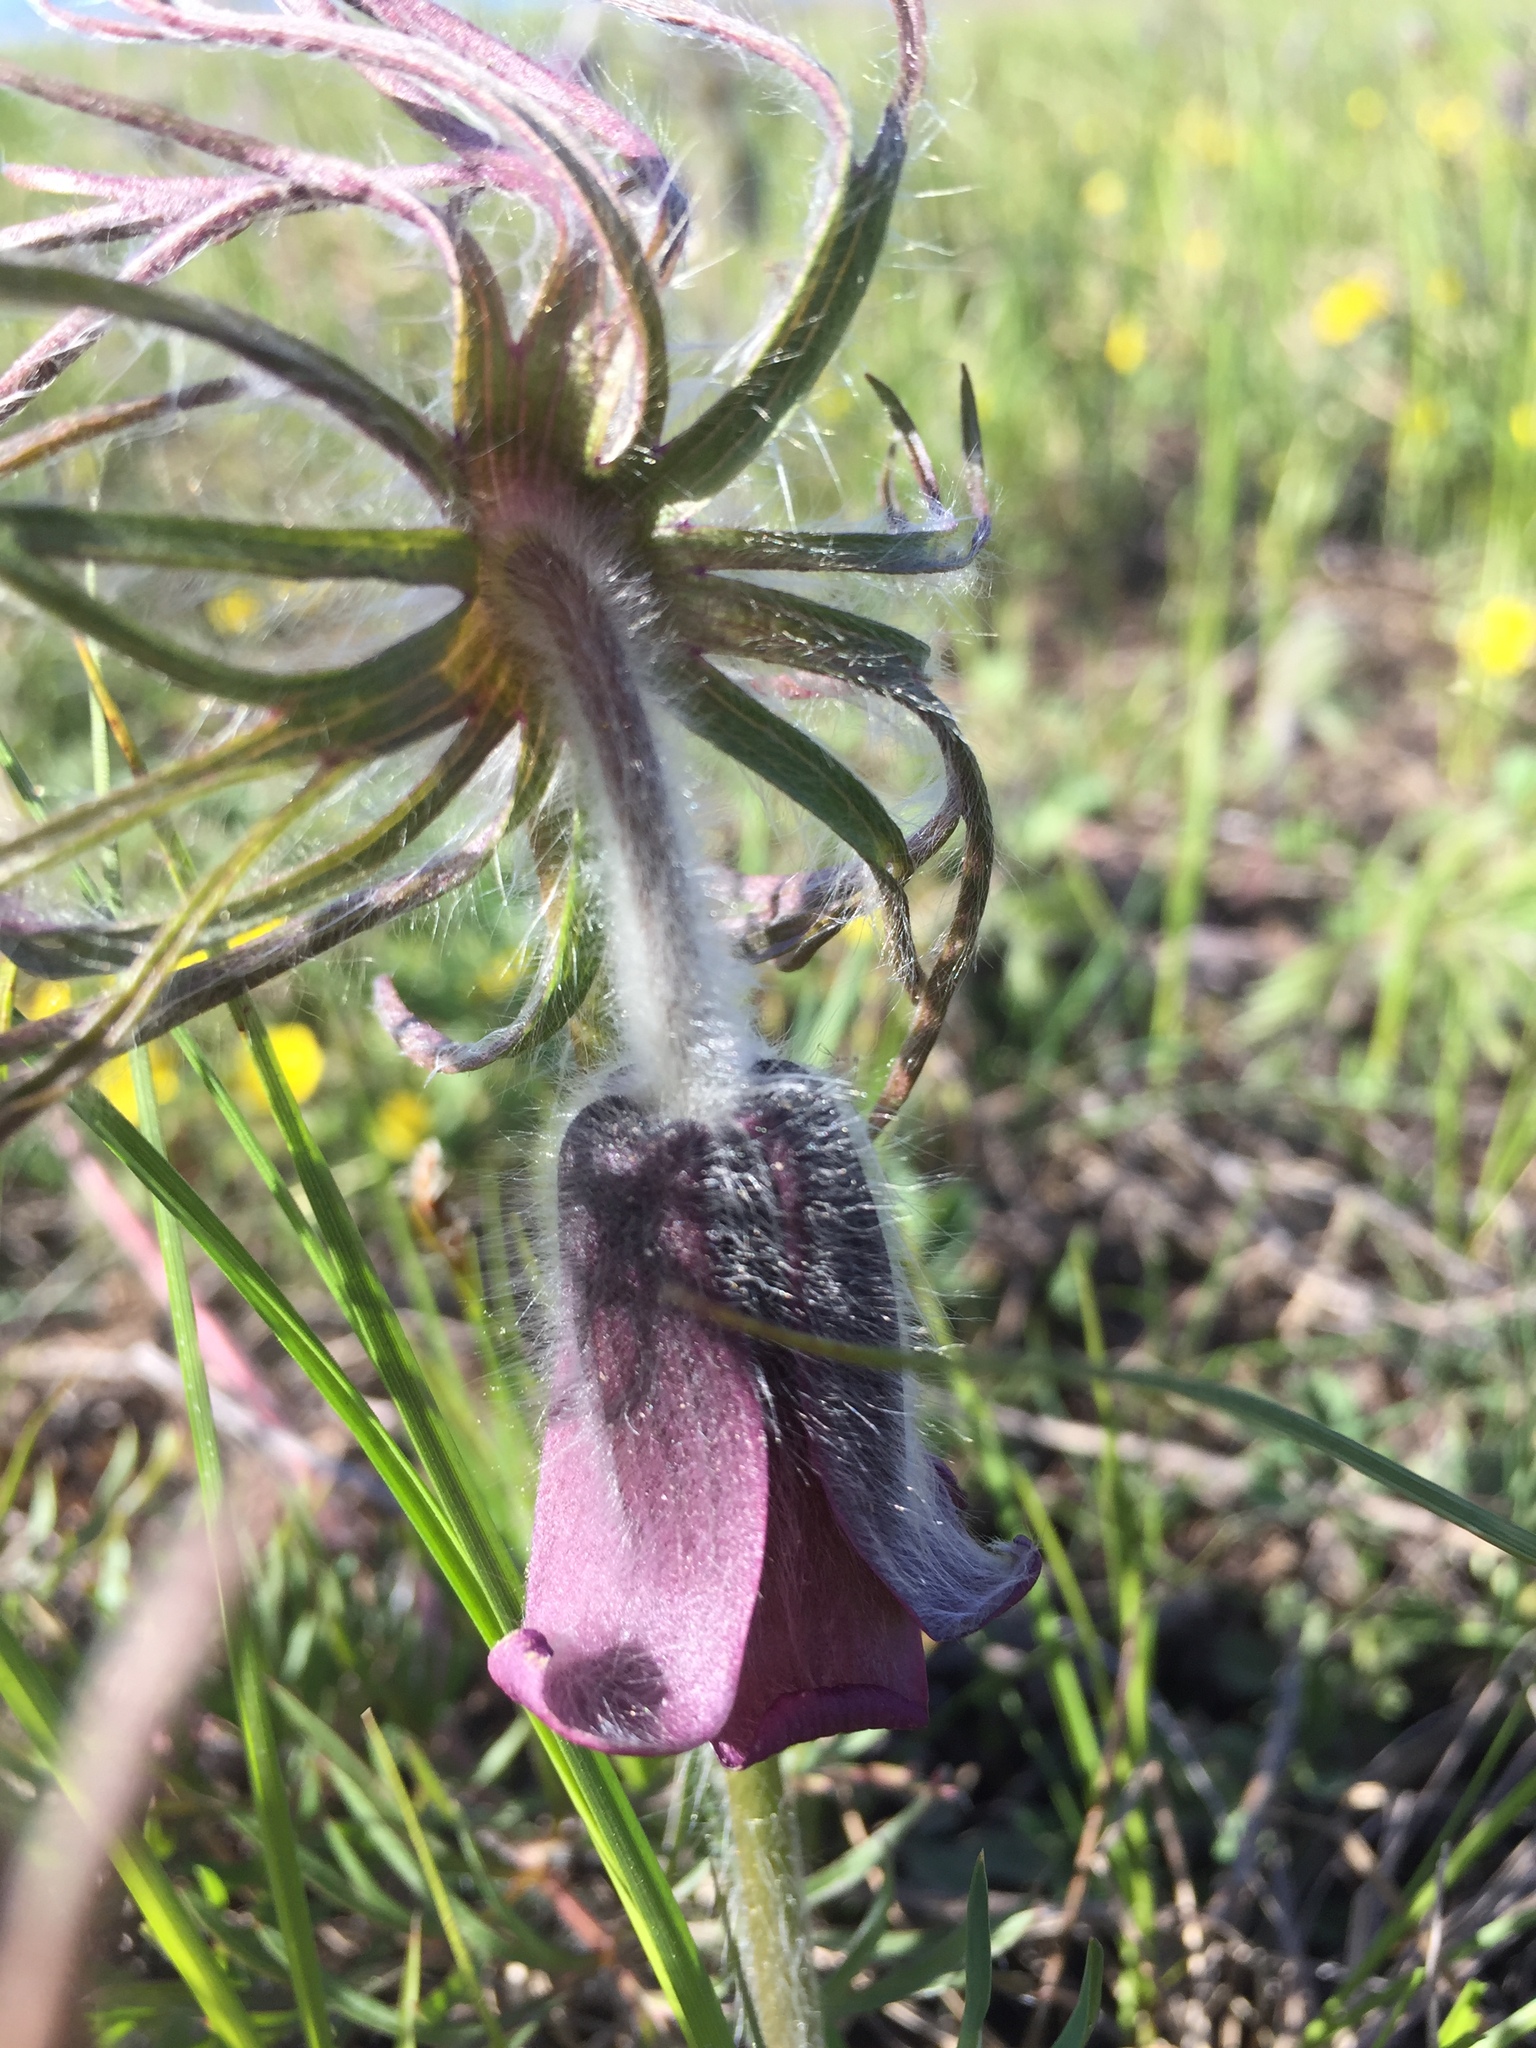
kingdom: Plantae
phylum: Tracheophyta
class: Magnoliopsida
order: Ranunculales
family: Ranunculaceae
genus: Pulsatilla
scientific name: Pulsatilla pratensis
